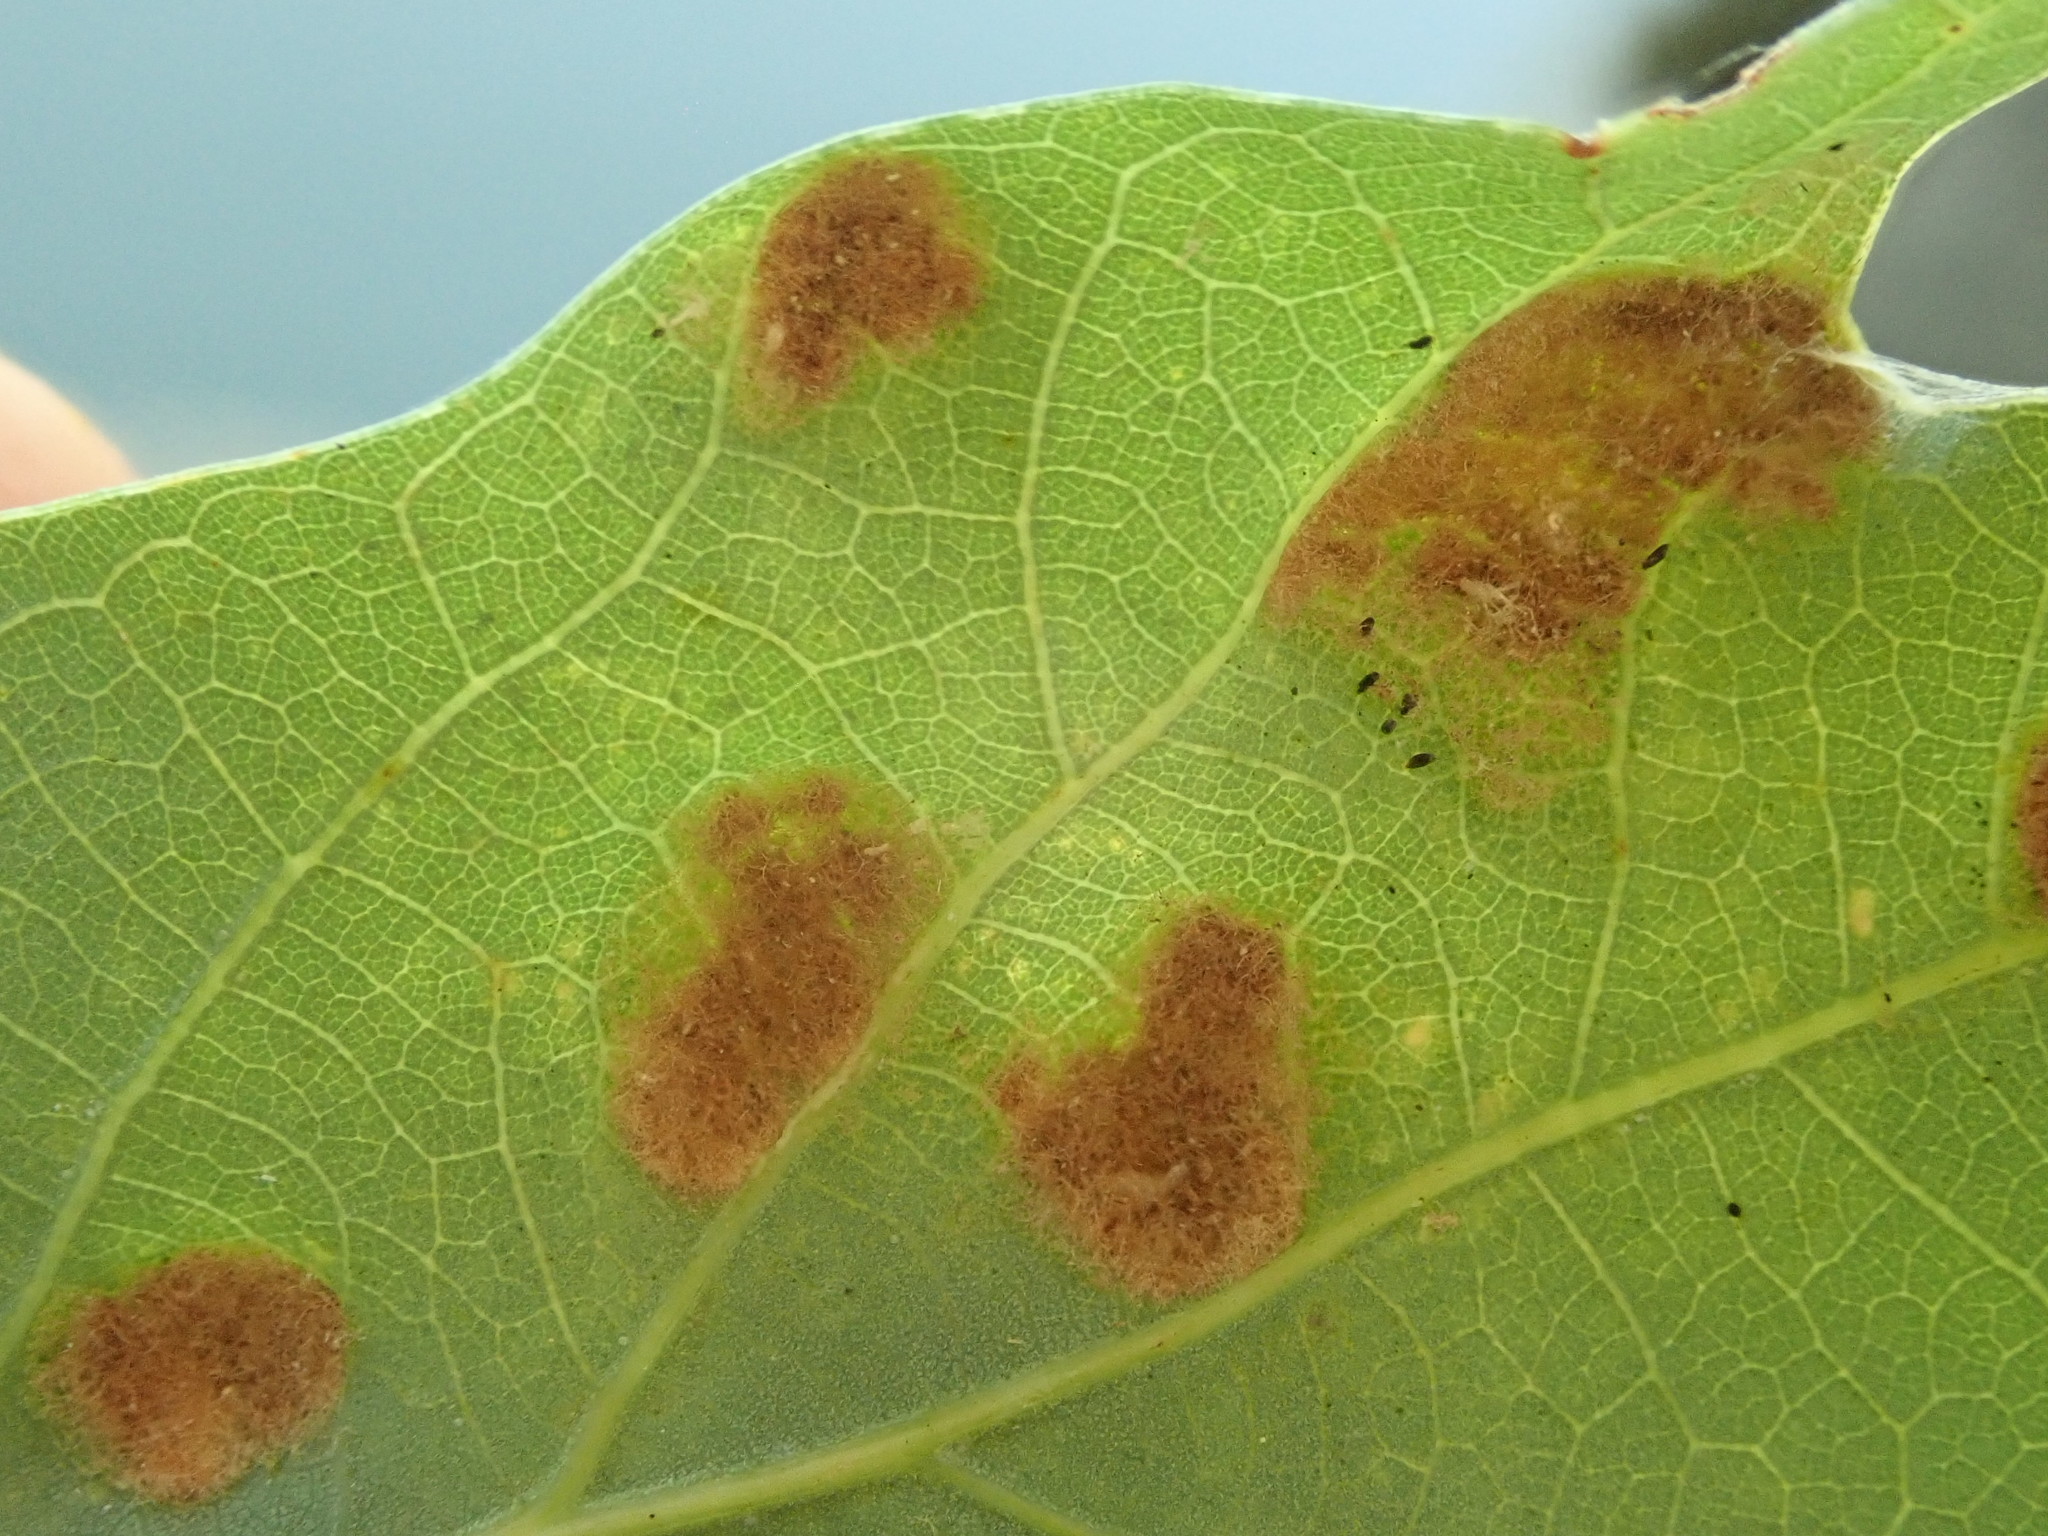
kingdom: Animalia
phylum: Arthropoda
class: Arachnida
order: Trombidiformes
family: Eriophyidae
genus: Aceria
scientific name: Aceria
